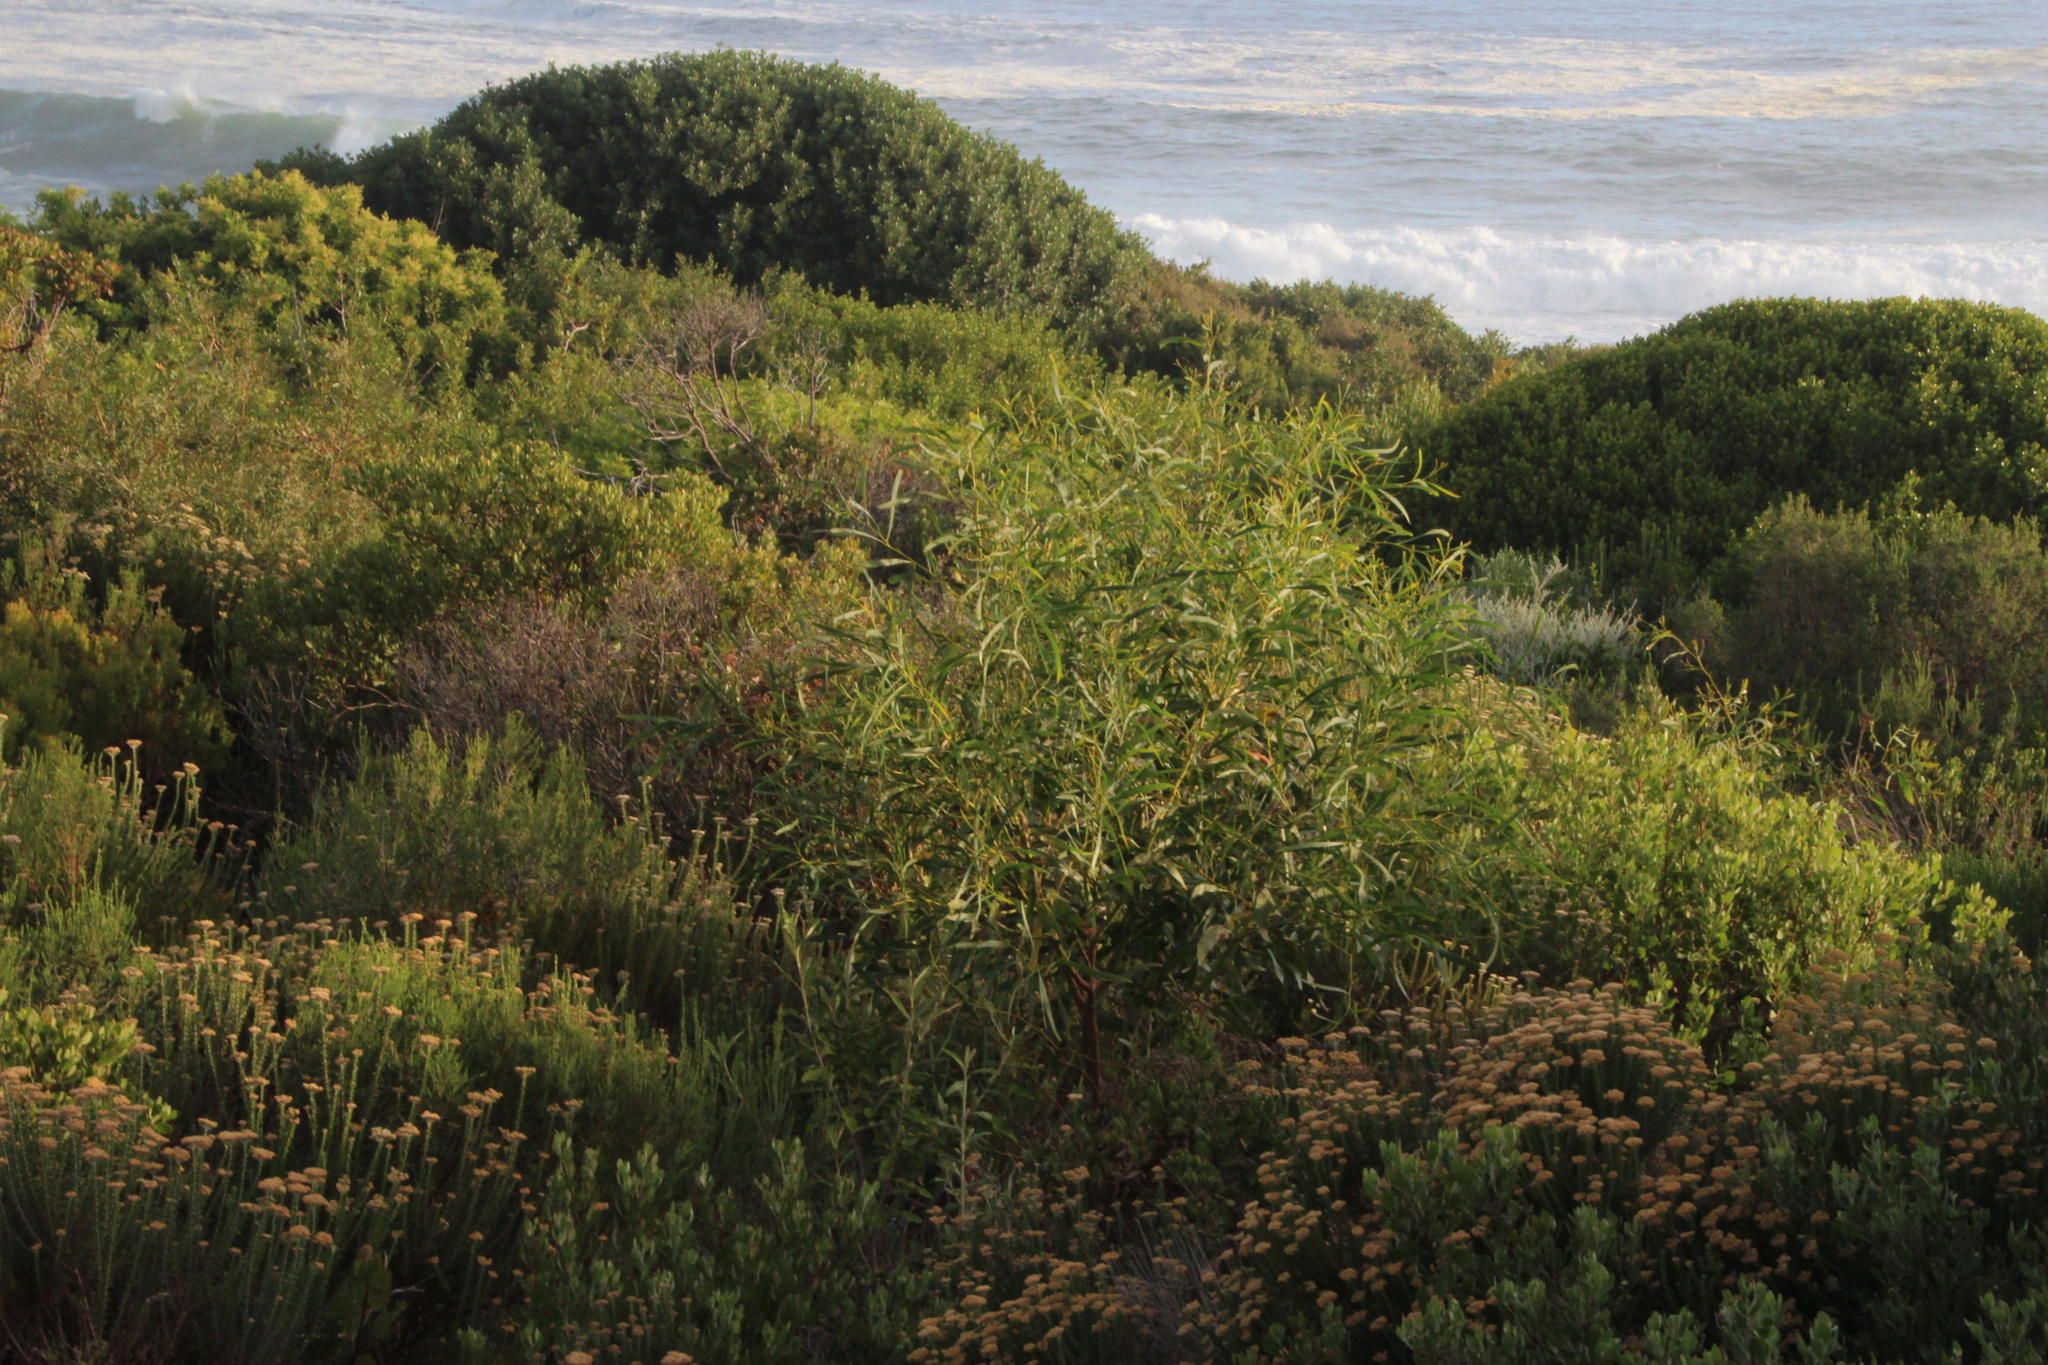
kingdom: Plantae
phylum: Tracheophyta
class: Magnoliopsida
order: Fabales
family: Fabaceae
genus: Acacia
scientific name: Acacia saligna
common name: Orange wattle
